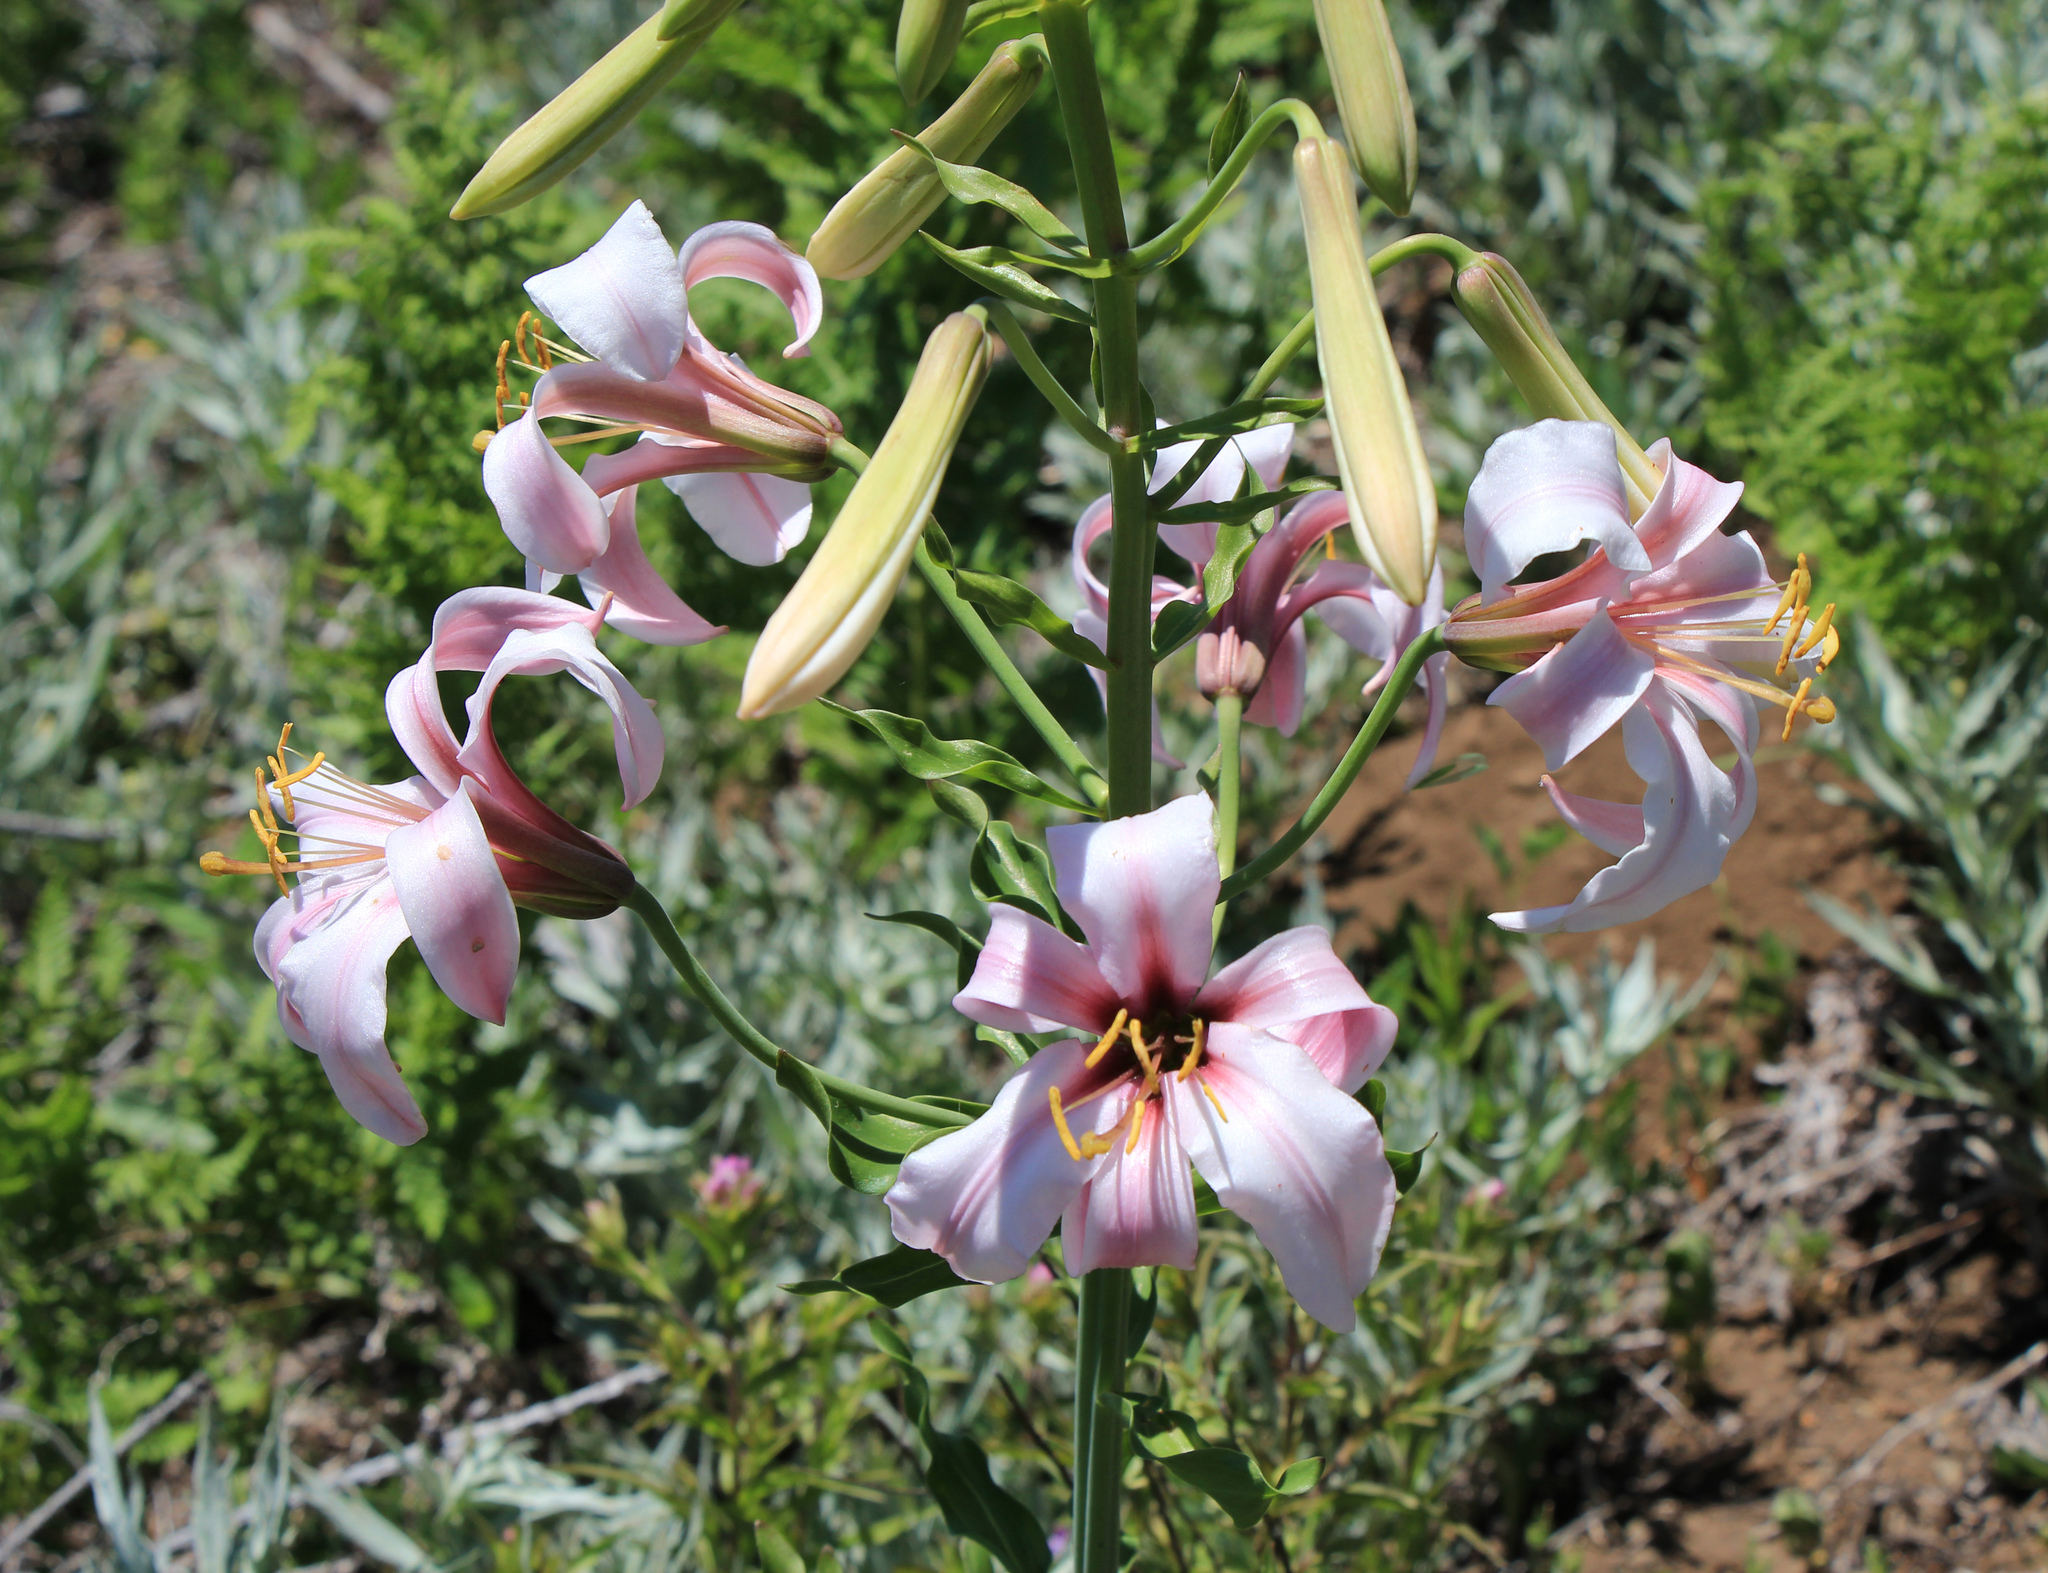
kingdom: Plantae
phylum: Tracheophyta
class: Liliopsida
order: Liliales
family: Liliaceae
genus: Lilium
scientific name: Lilium washingtonianum
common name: Washington lily
